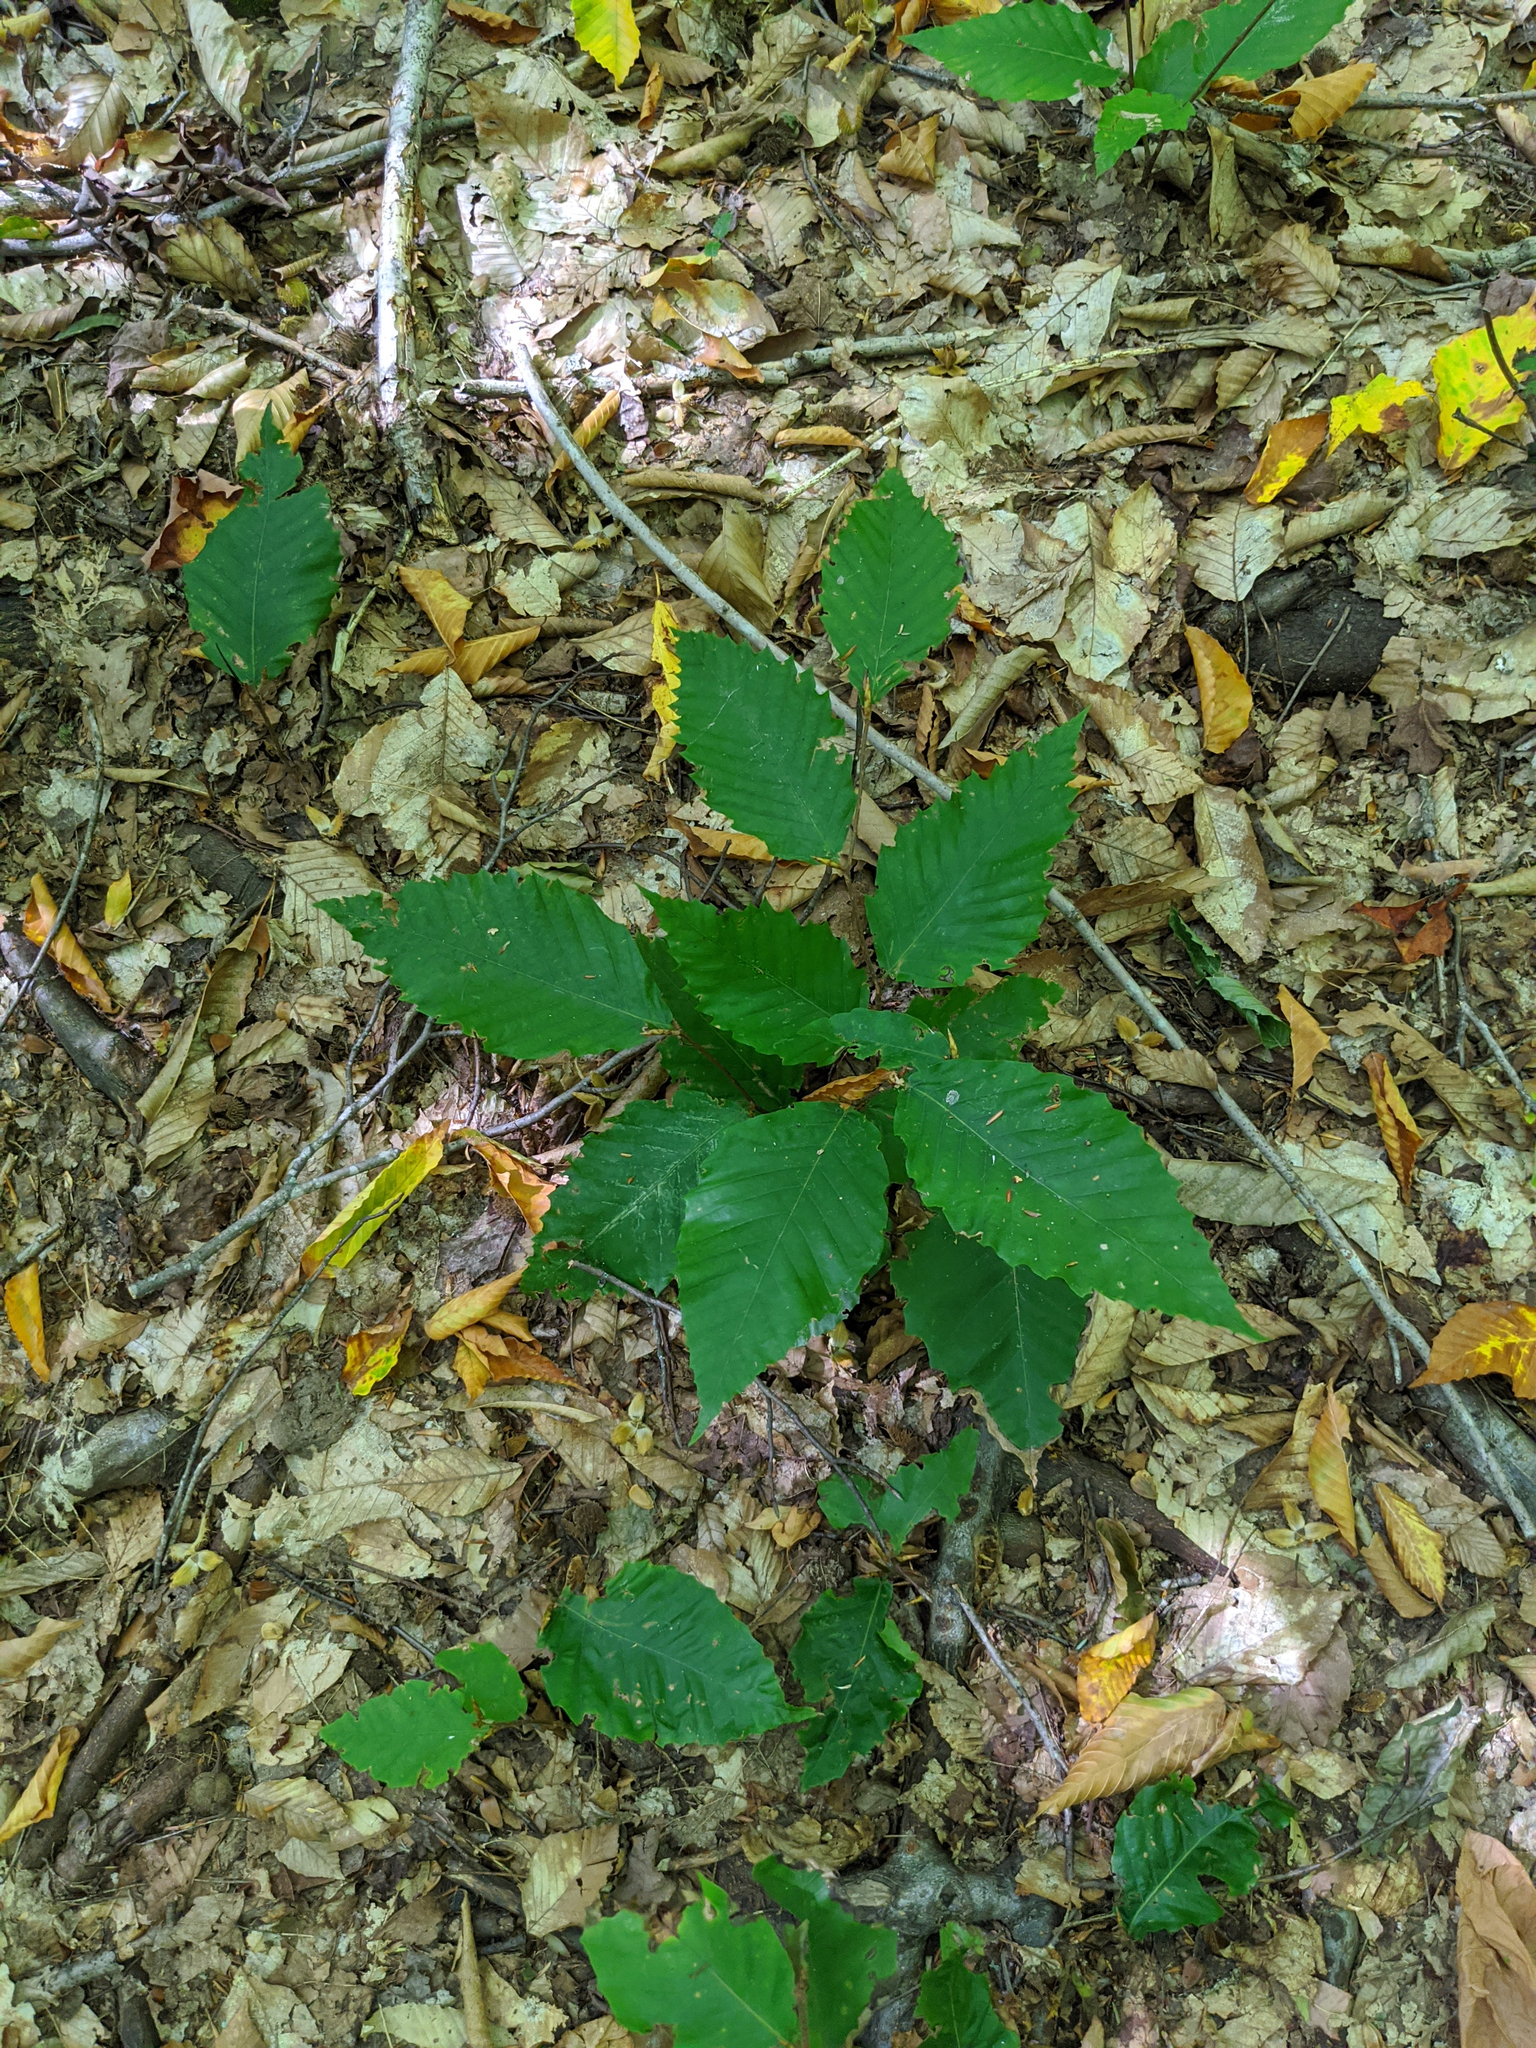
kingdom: Plantae
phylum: Tracheophyta
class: Magnoliopsida
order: Fagales
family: Fagaceae
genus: Fagus
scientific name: Fagus grandifolia
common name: American beech
